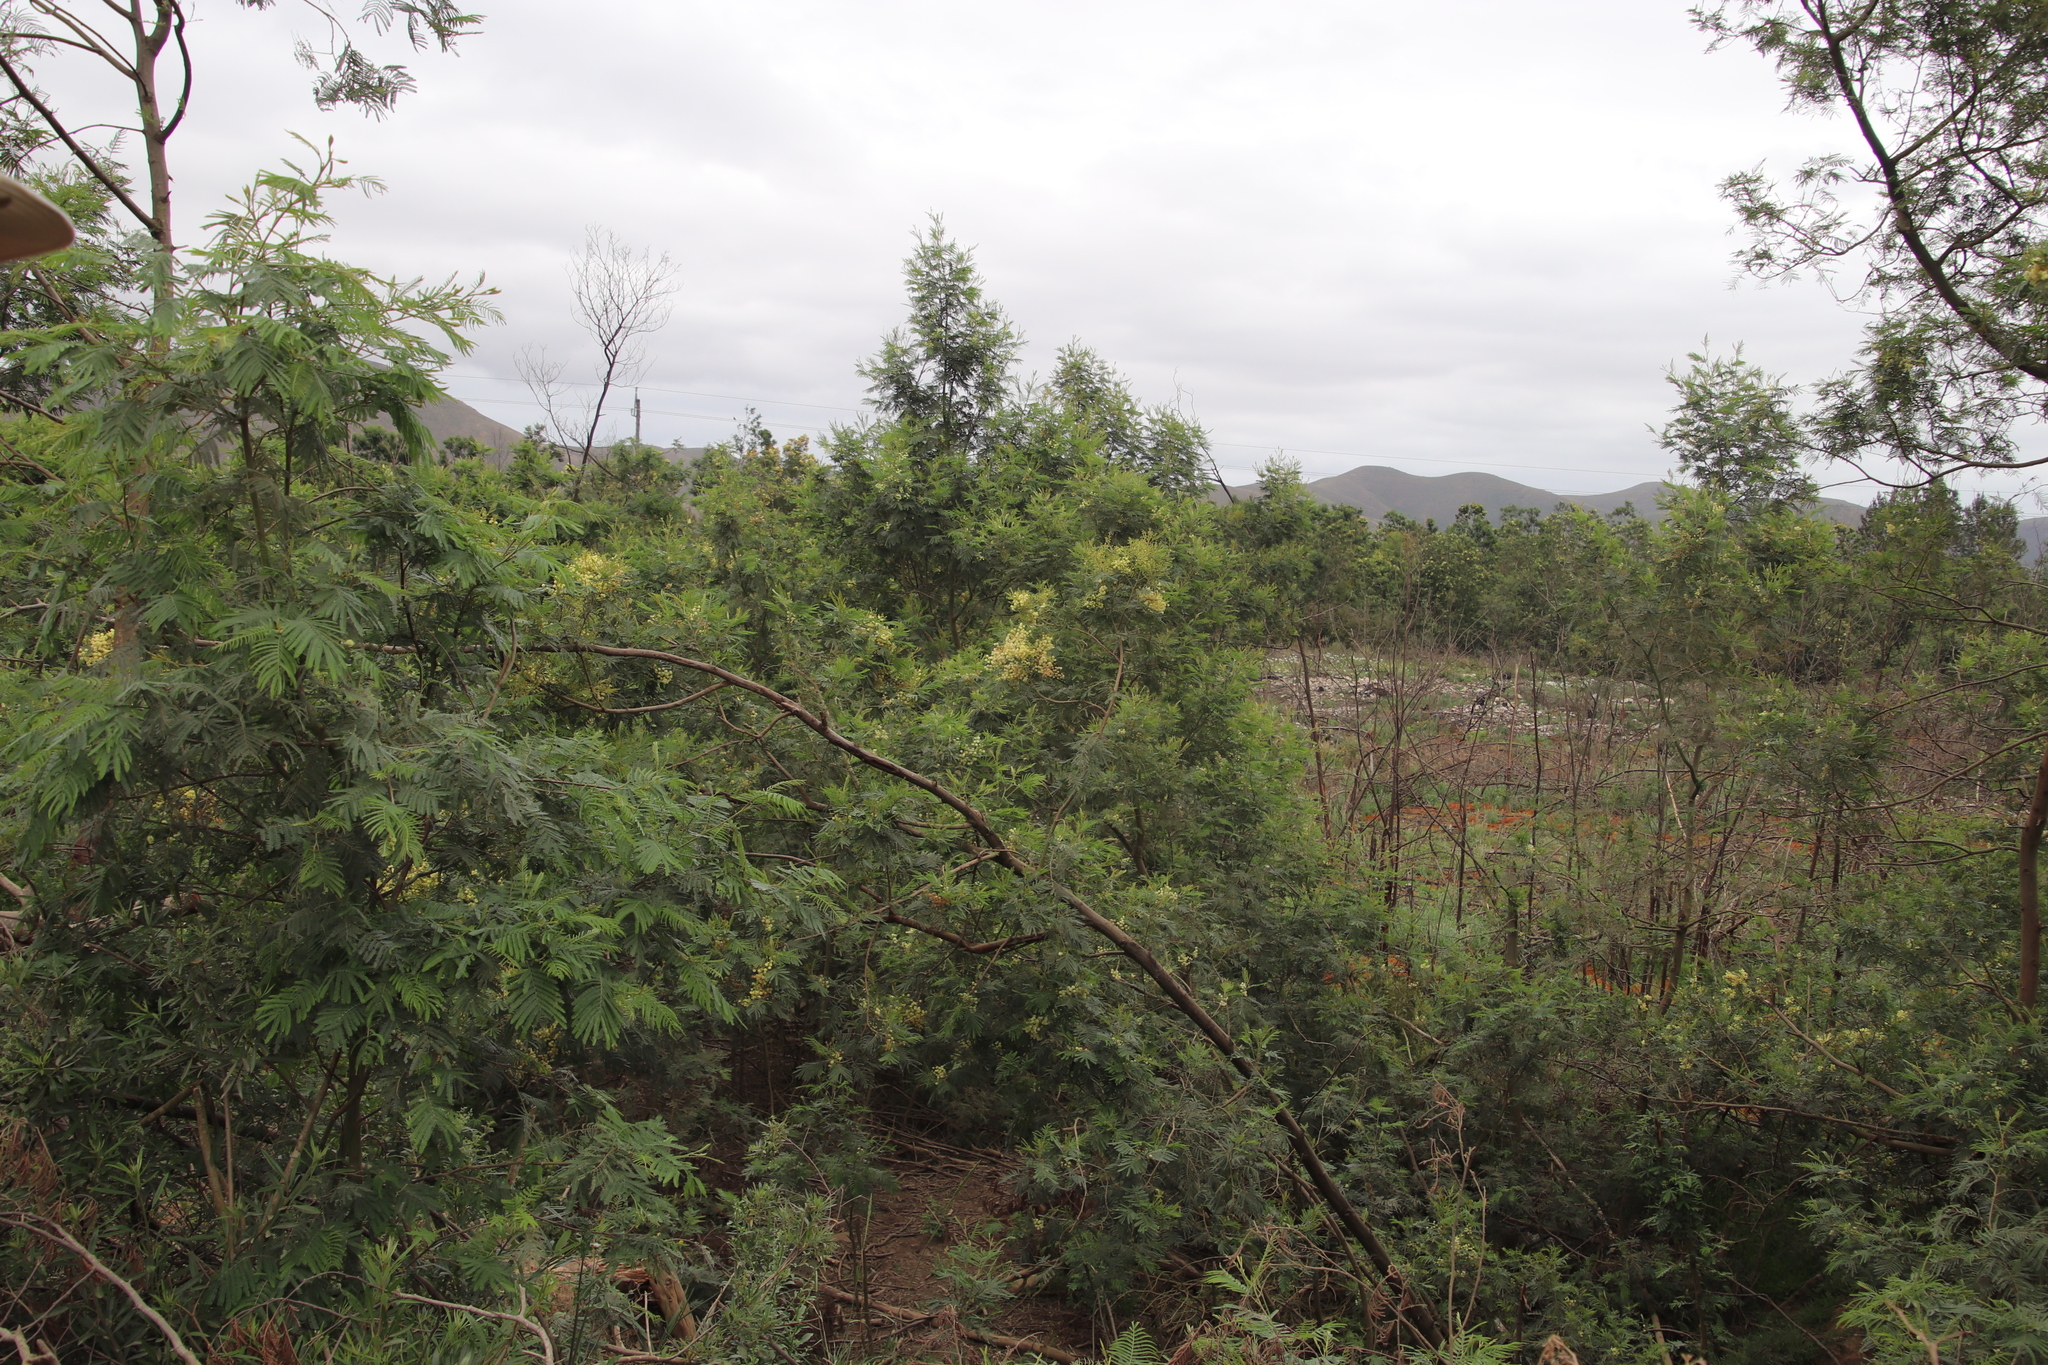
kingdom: Plantae
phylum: Tracheophyta
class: Magnoliopsida
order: Fabales
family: Fabaceae
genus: Acacia
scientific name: Acacia mearnsii
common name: Black wattle
